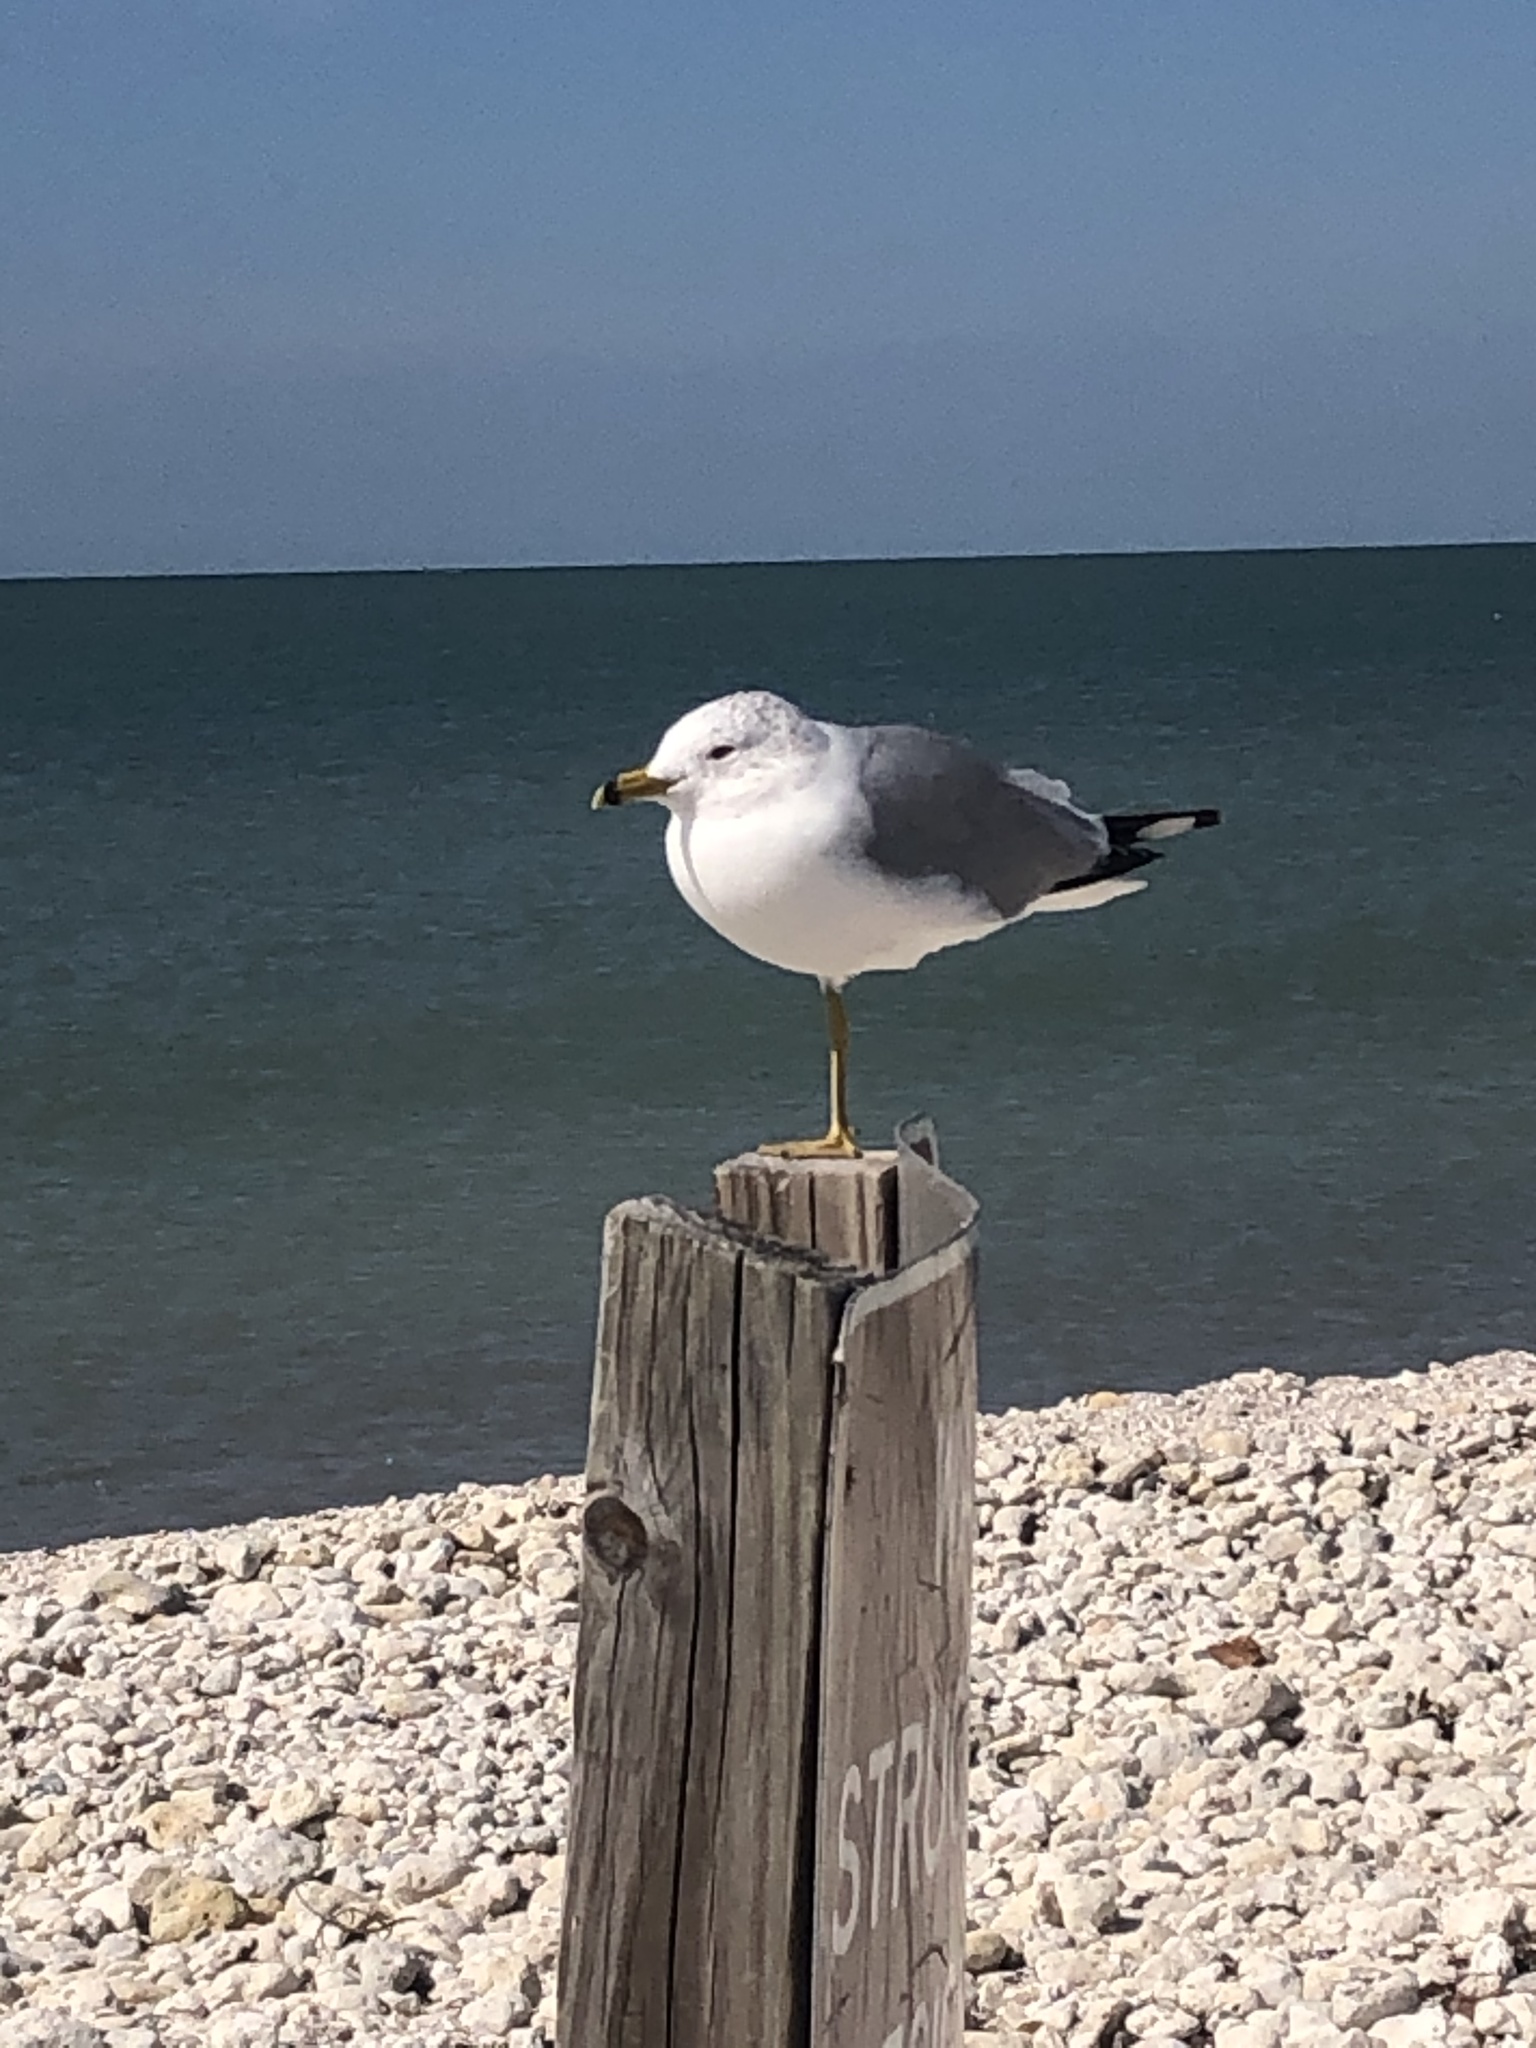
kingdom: Animalia
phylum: Chordata
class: Aves
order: Charadriiformes
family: Laridae
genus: Larus
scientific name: Larus delawarensis
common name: Ring-billed gull
